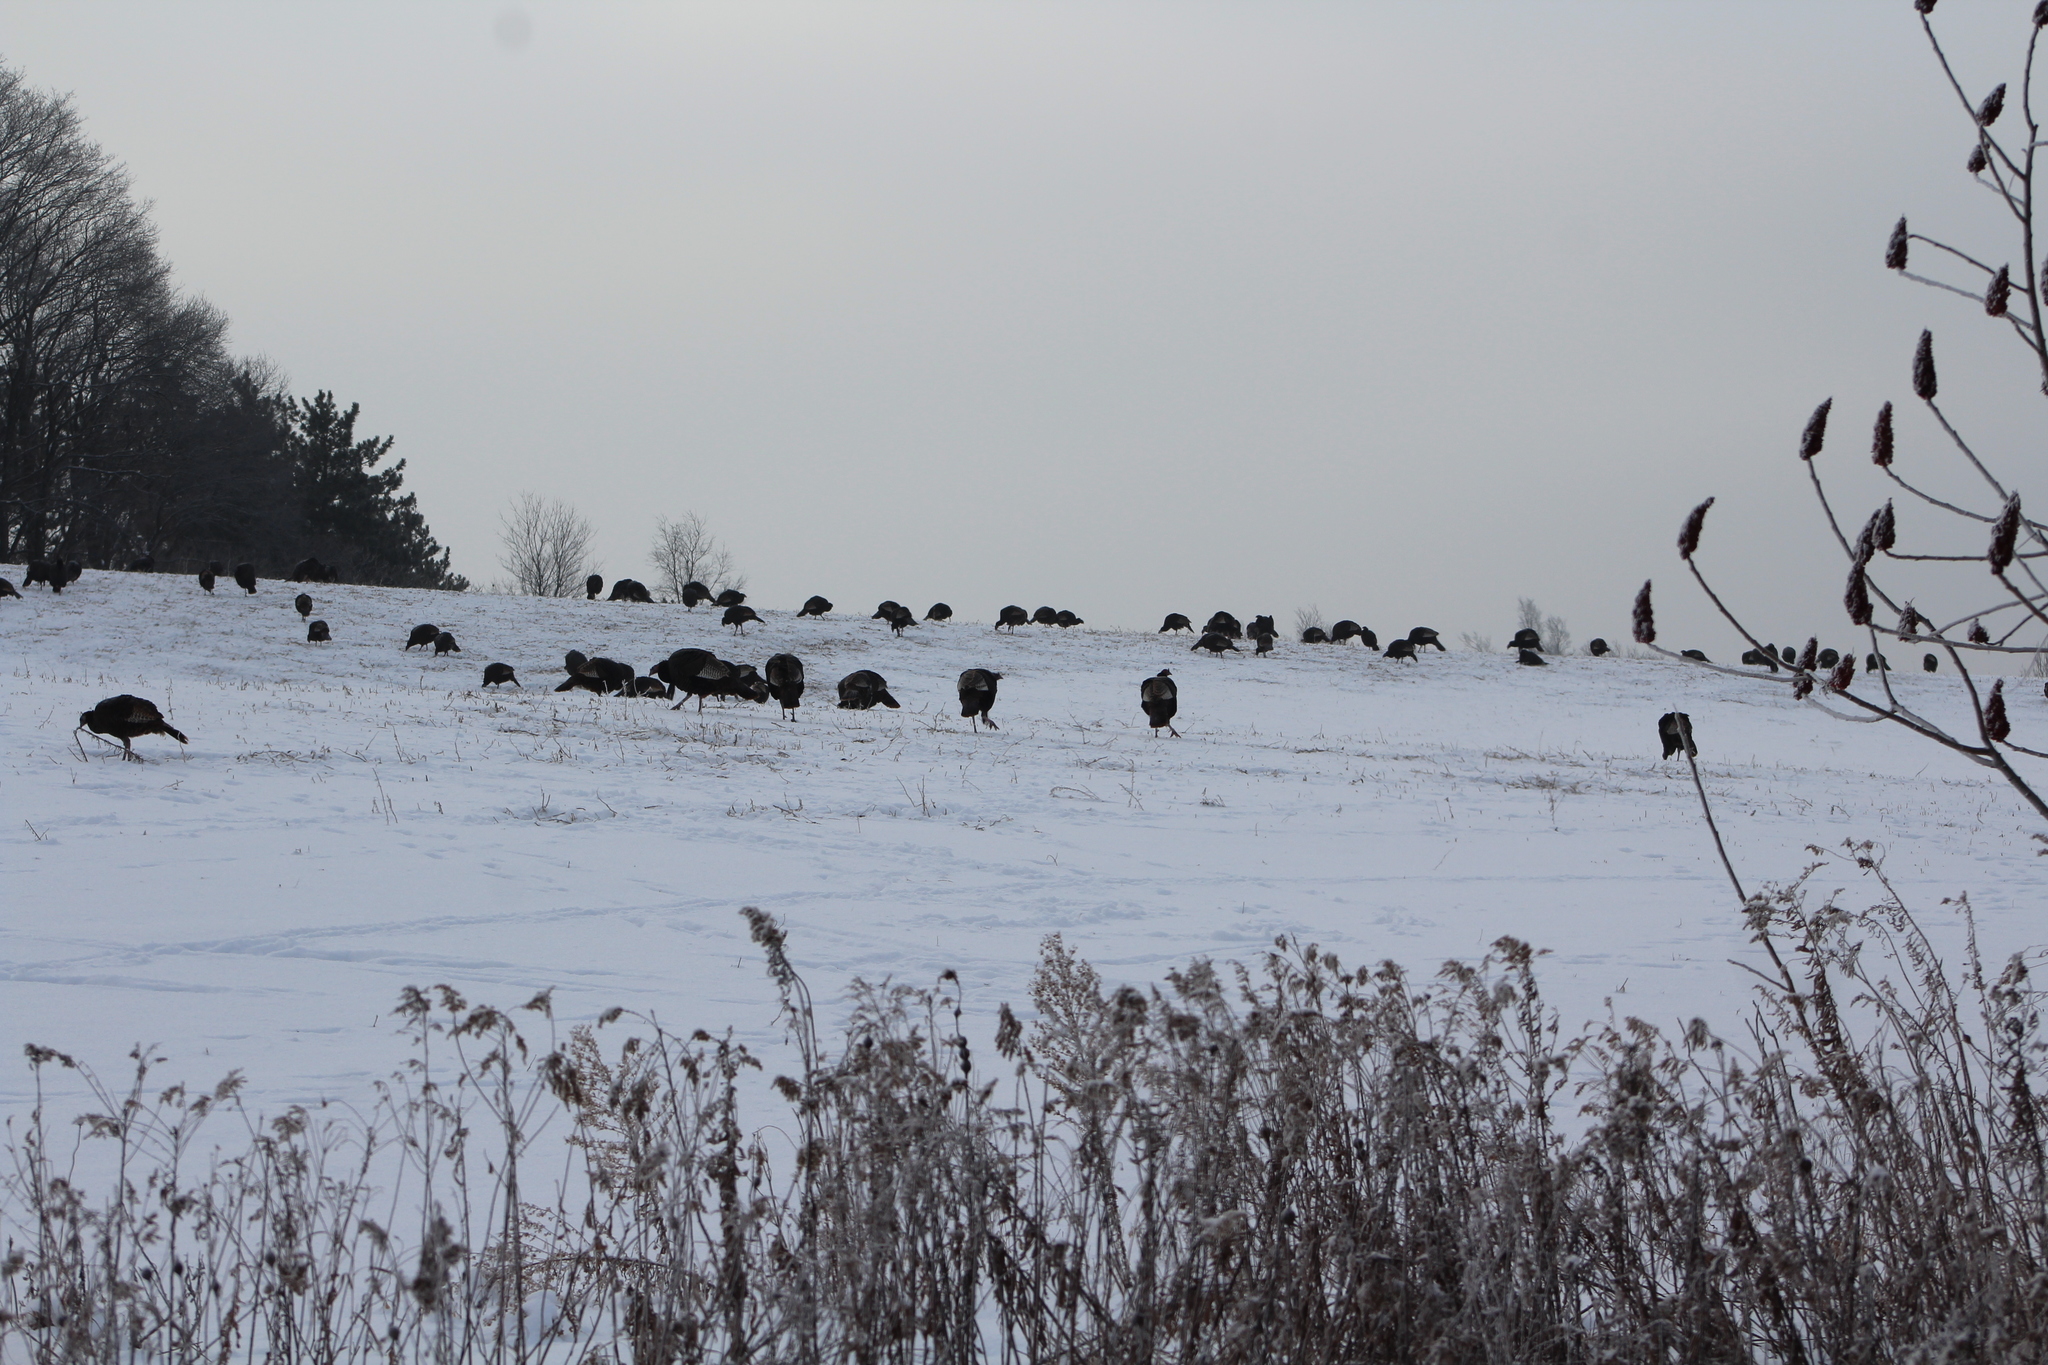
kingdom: Animalia
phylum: Chordata
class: Aves
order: Galliformes
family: Phasianidae
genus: Meleagris
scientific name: Meleagris gallopavo
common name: Wild turkey
